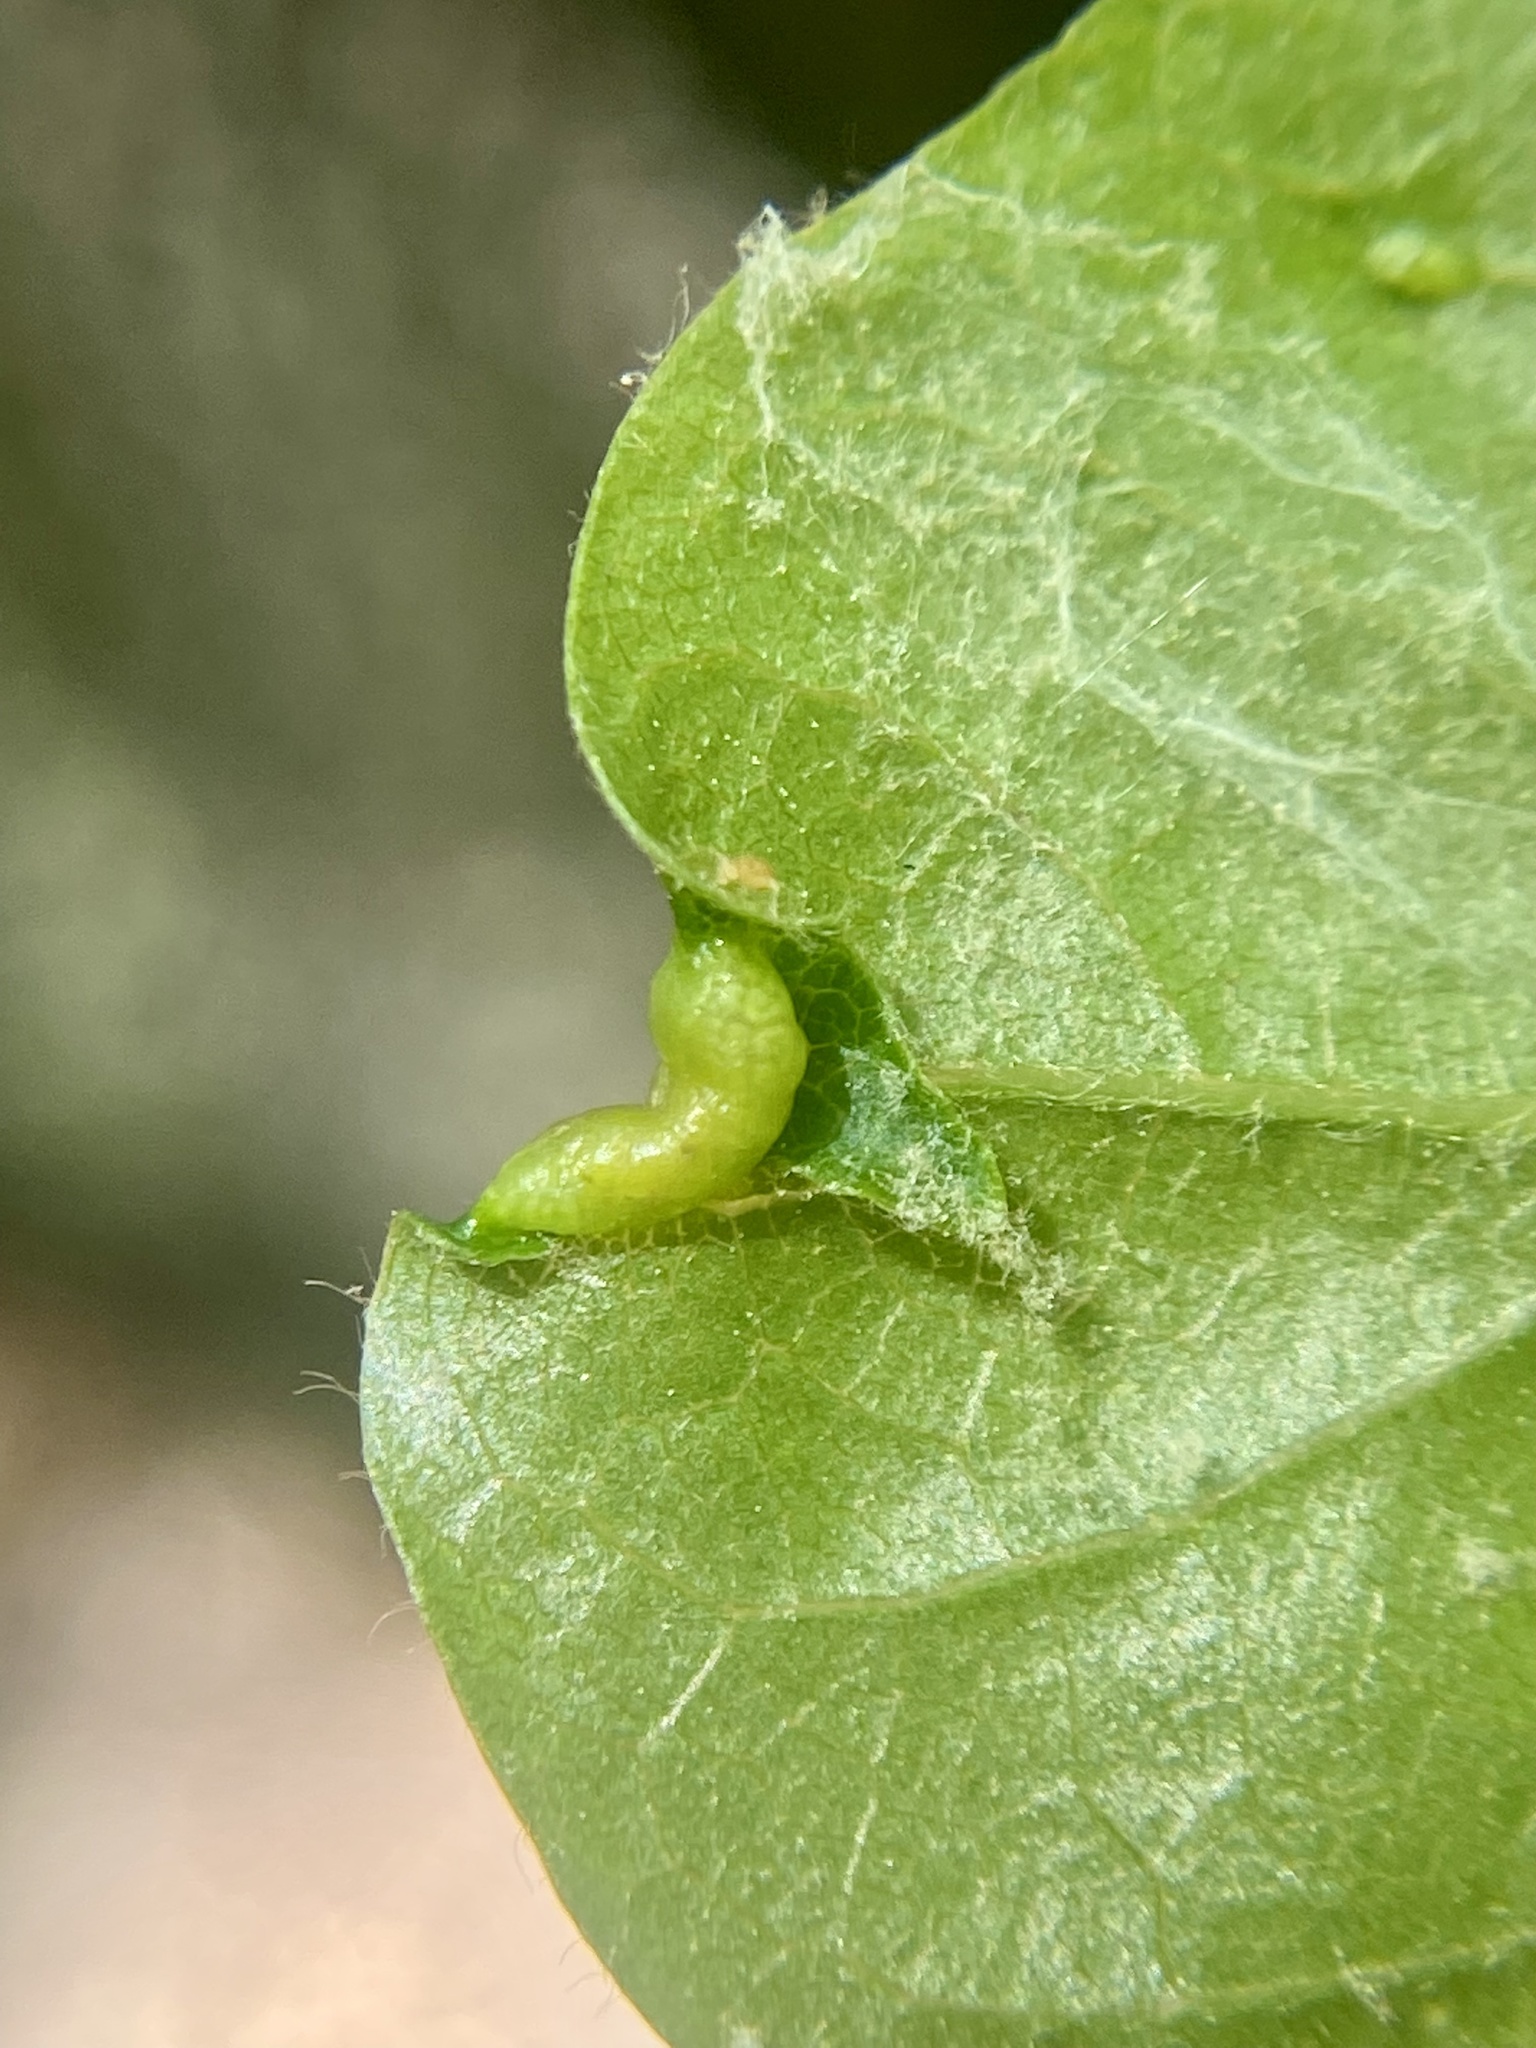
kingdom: Animalia
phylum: Arthropoda
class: Insecta
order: Hemiptera
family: Phylloxeridae
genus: Phylloxerina
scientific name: Phylloxerina nyssae
